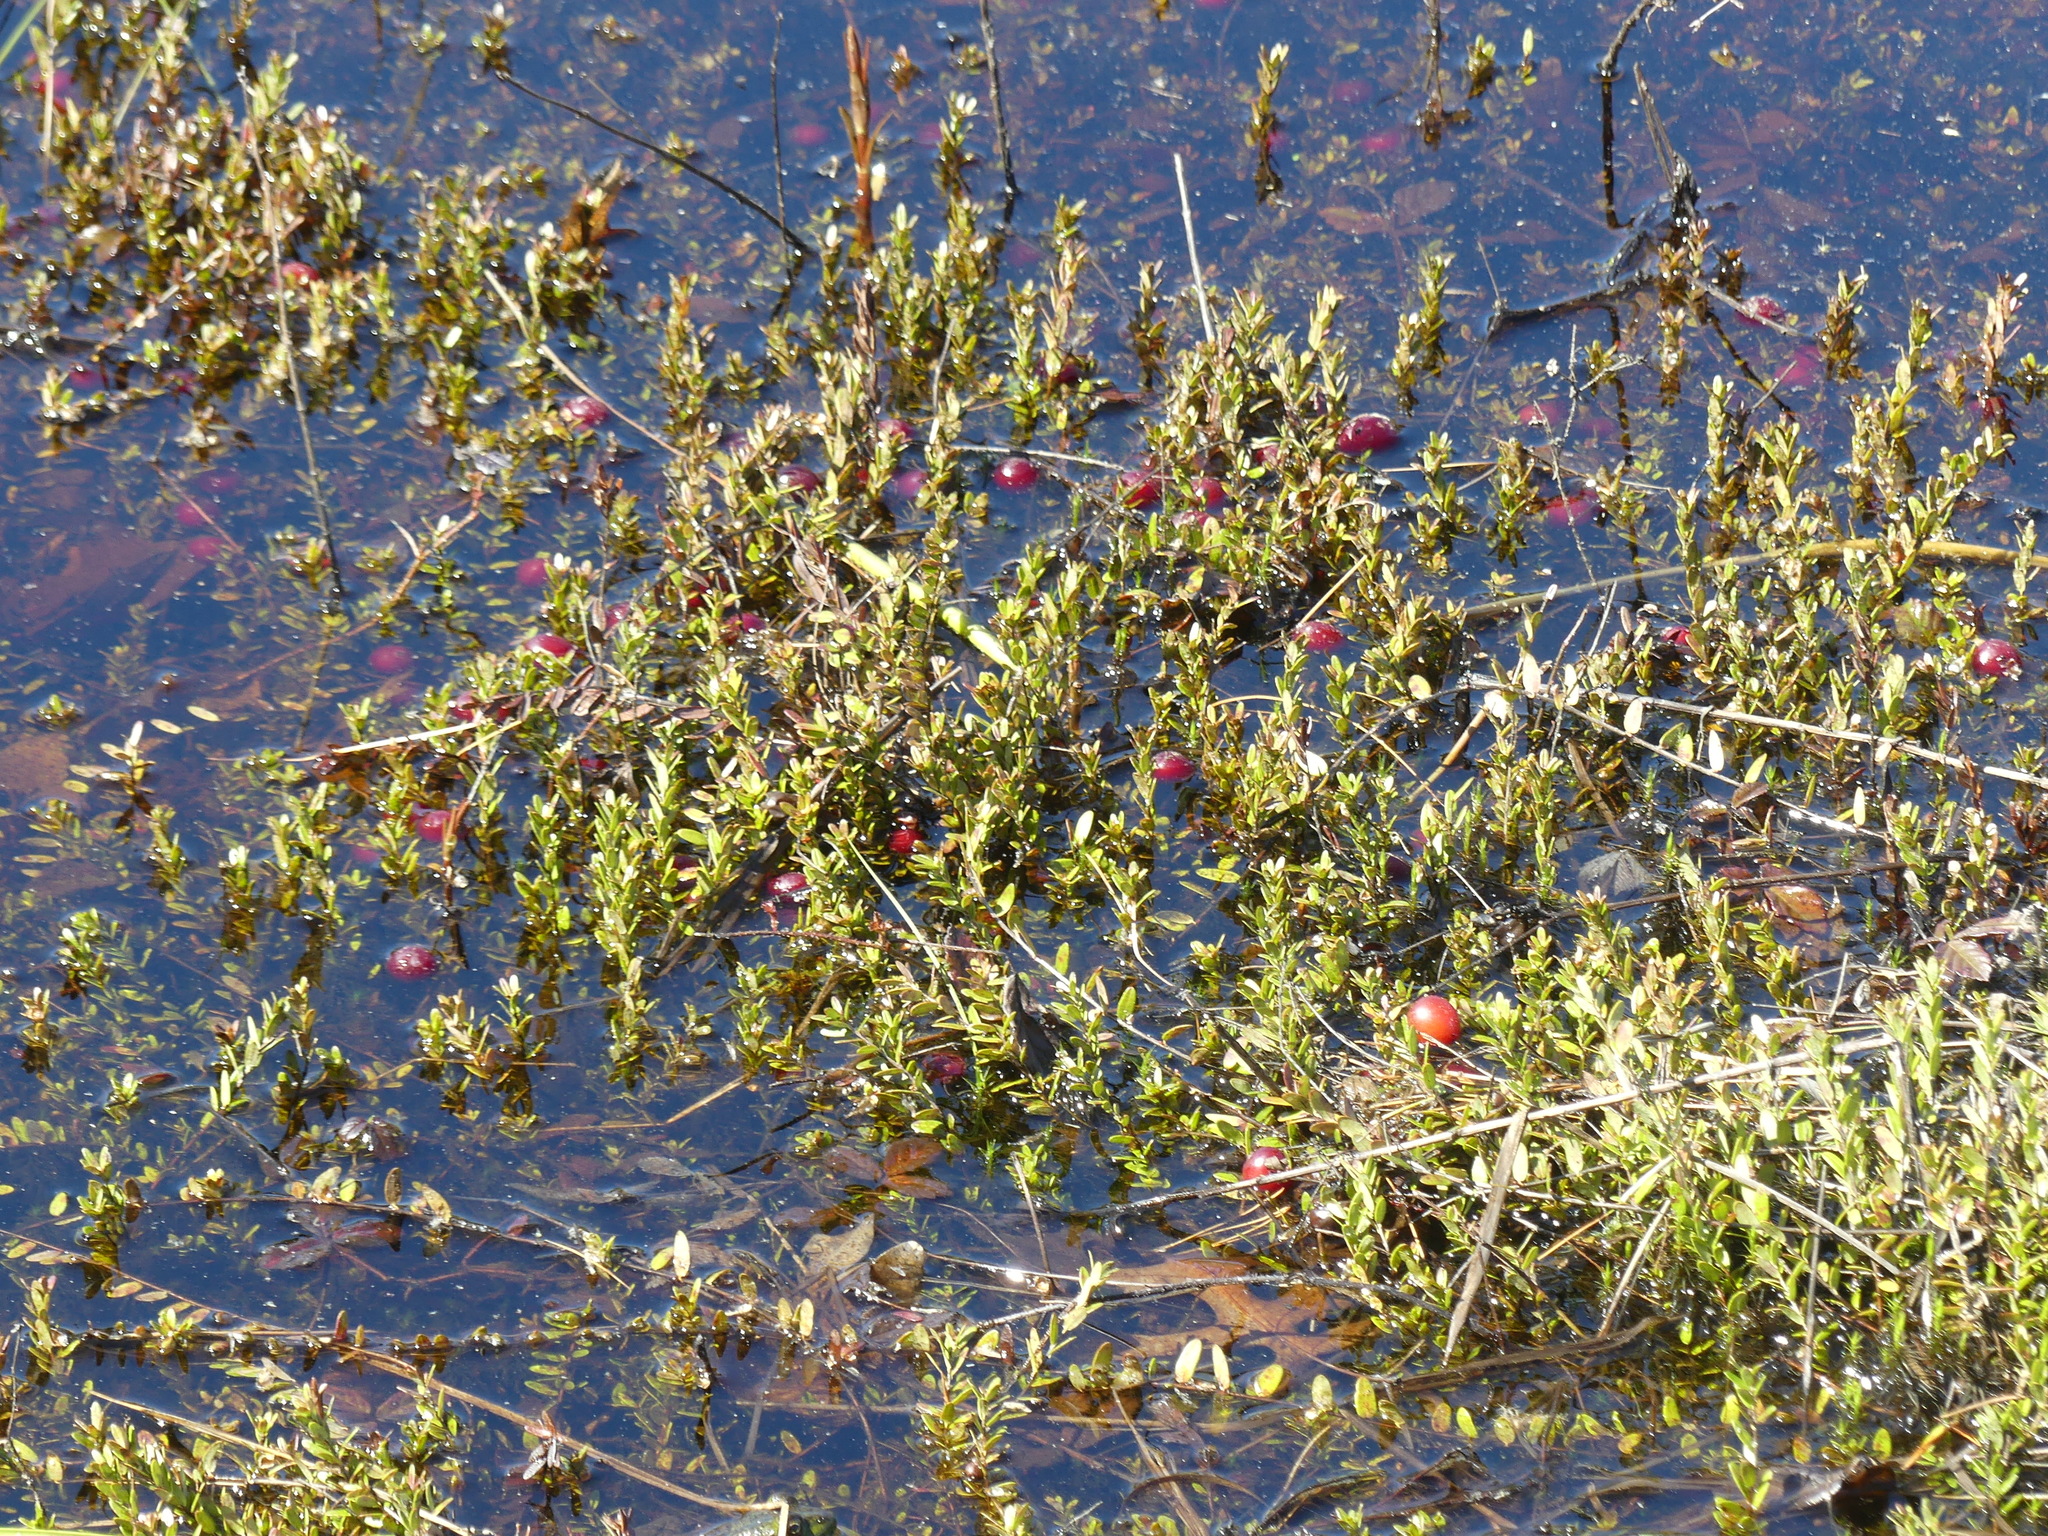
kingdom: Plantae
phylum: Tracheophyta
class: Magnoliopsida
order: Ericales
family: Ericaceae
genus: Vaccinium
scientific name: Vaccinium macrocarpon
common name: American cranberry
